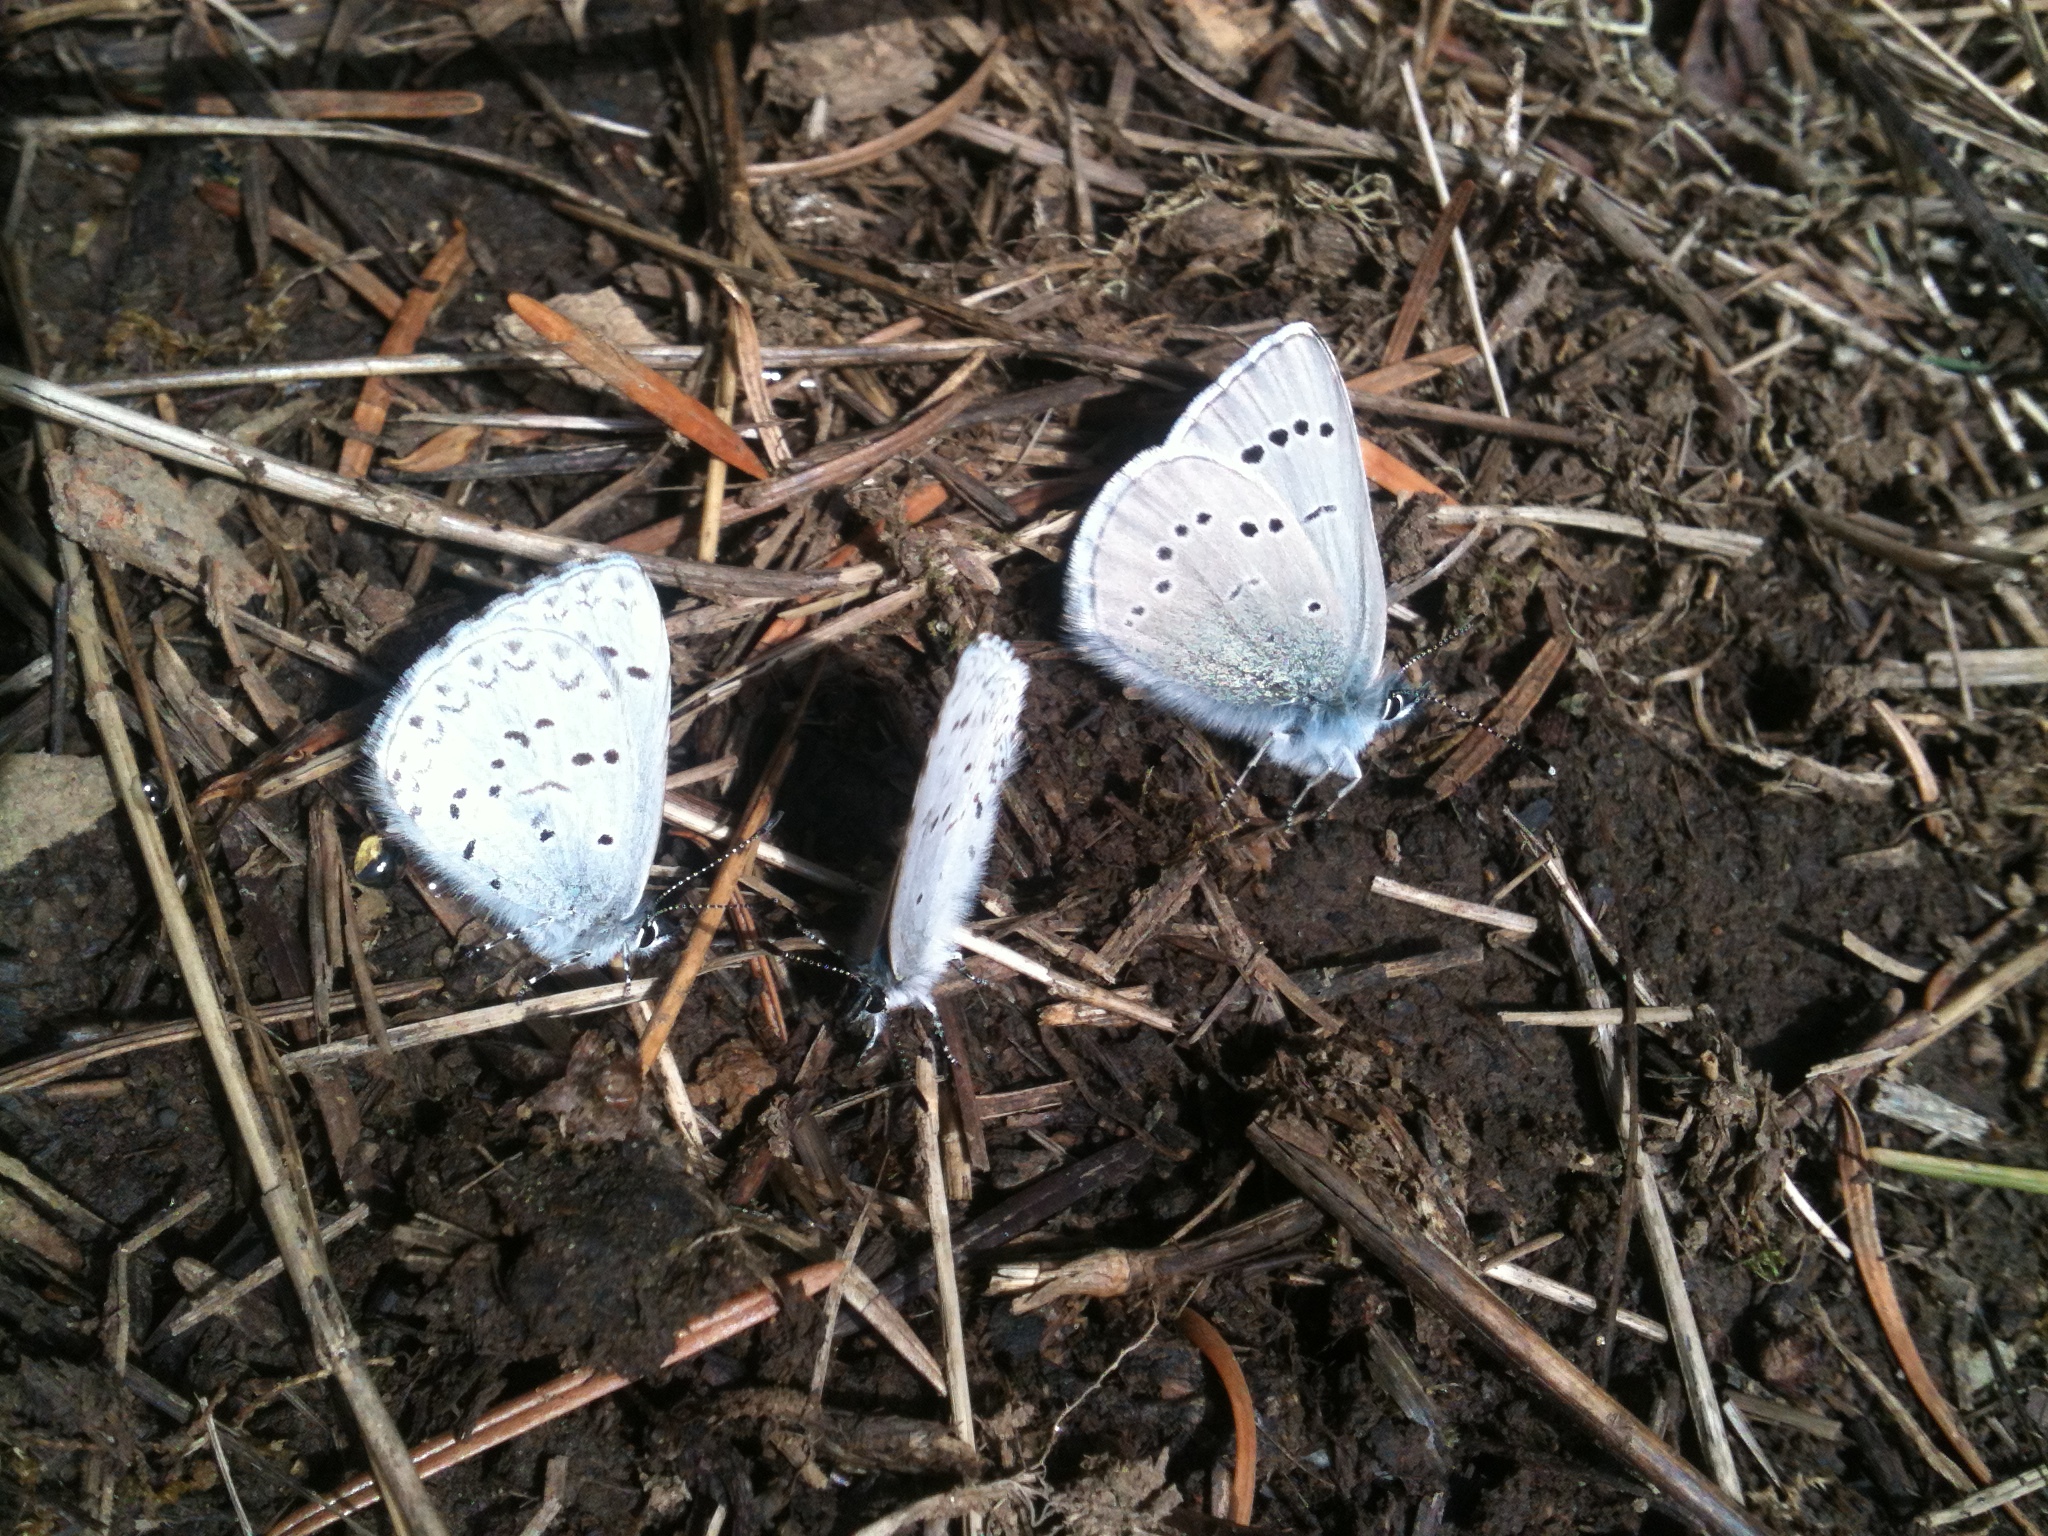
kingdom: Animalia
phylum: Arthropoda
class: Insecta
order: Lepidoptera
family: Lycaenidae
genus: Celastrina
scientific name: Celastrina ladon
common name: Spring azure
